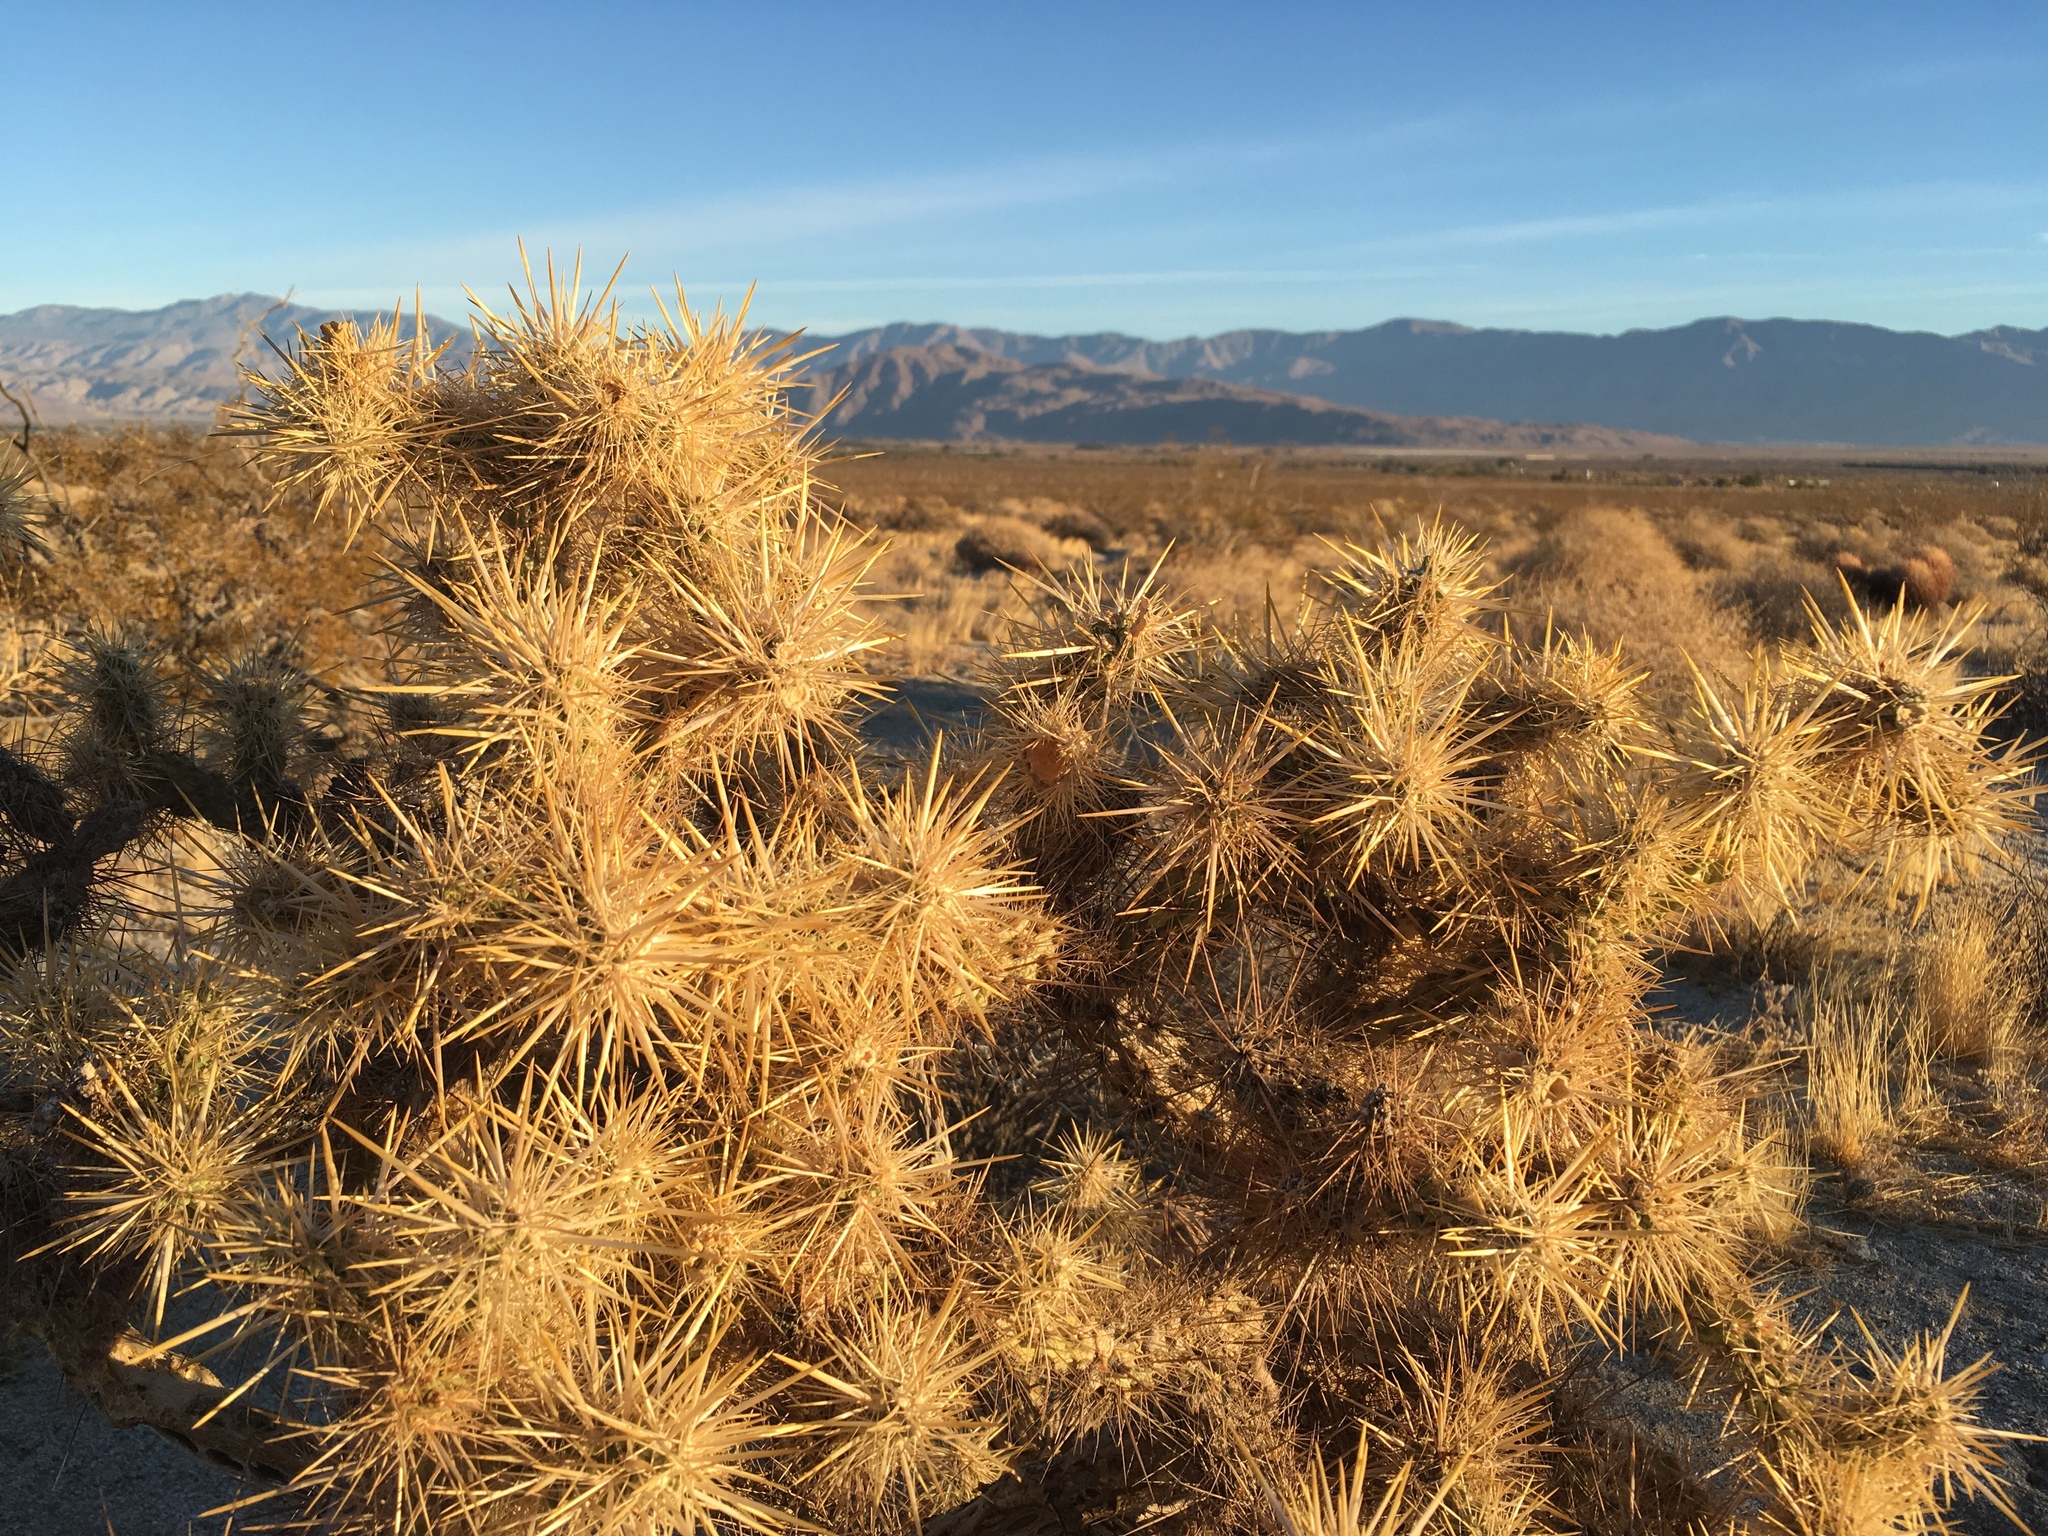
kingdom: Plantae
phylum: Tracheophyta
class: Magnoliopsida
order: Caryophyllales
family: Cactaceae
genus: Cylindropuntia
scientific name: Cylindropuntia echinocarpa
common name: Ground cholla
